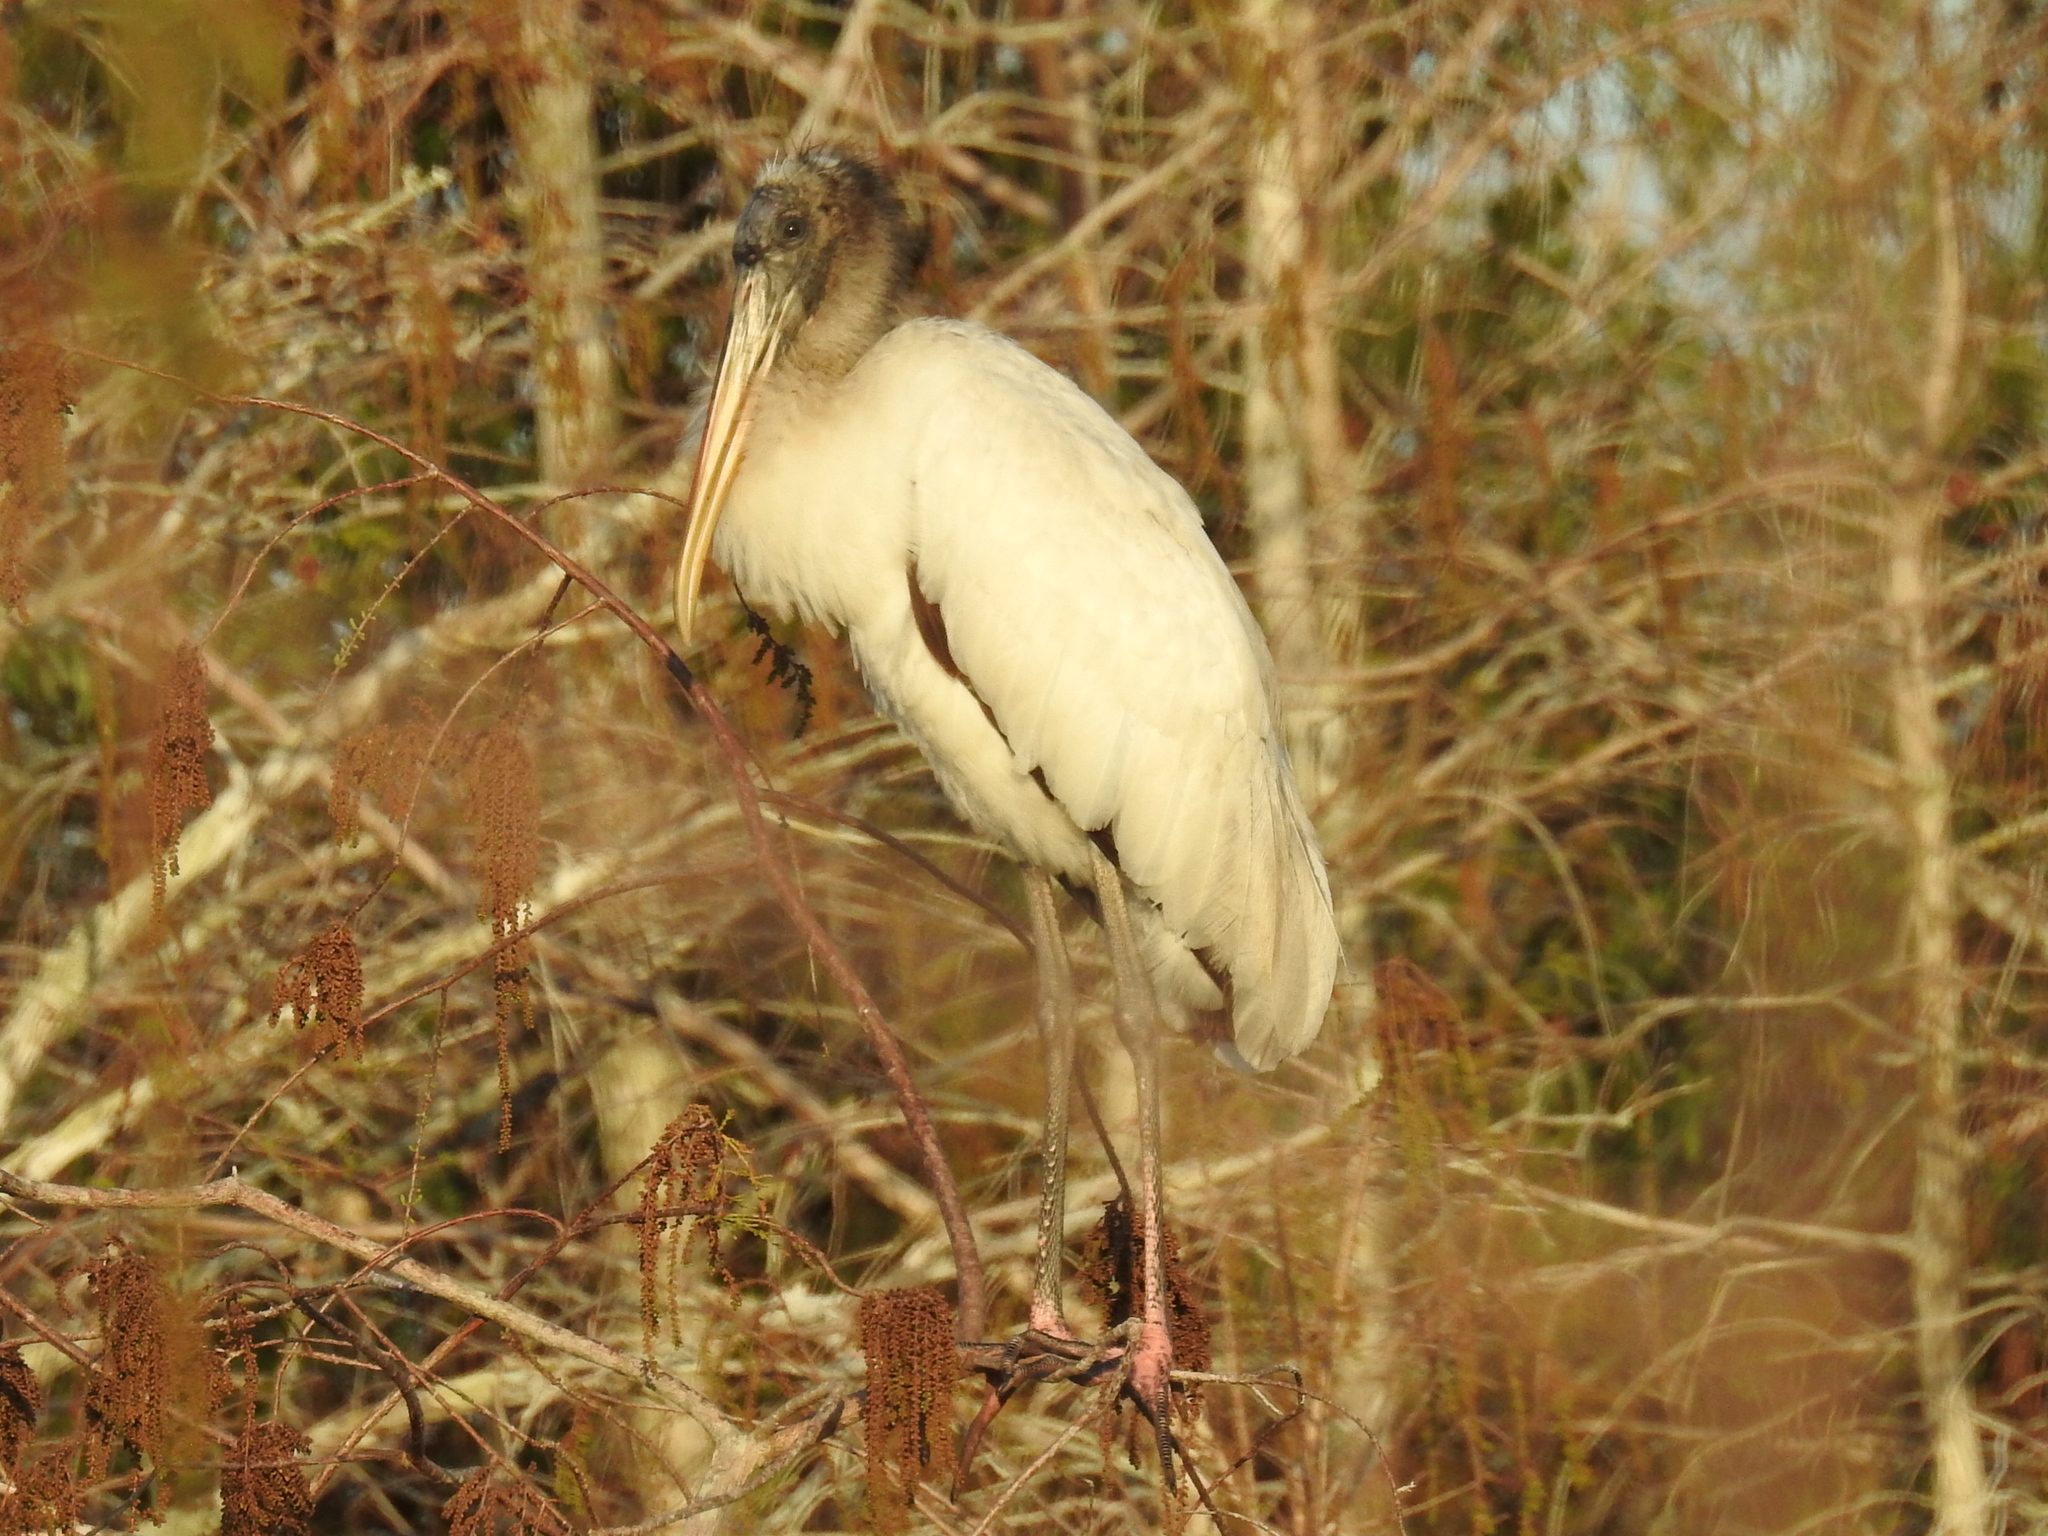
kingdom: Animalia
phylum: Chordata
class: Aves
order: Ciconiiformes
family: Ciconiidae
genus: Mycteria
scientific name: Mycteria americana
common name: Wood stork
